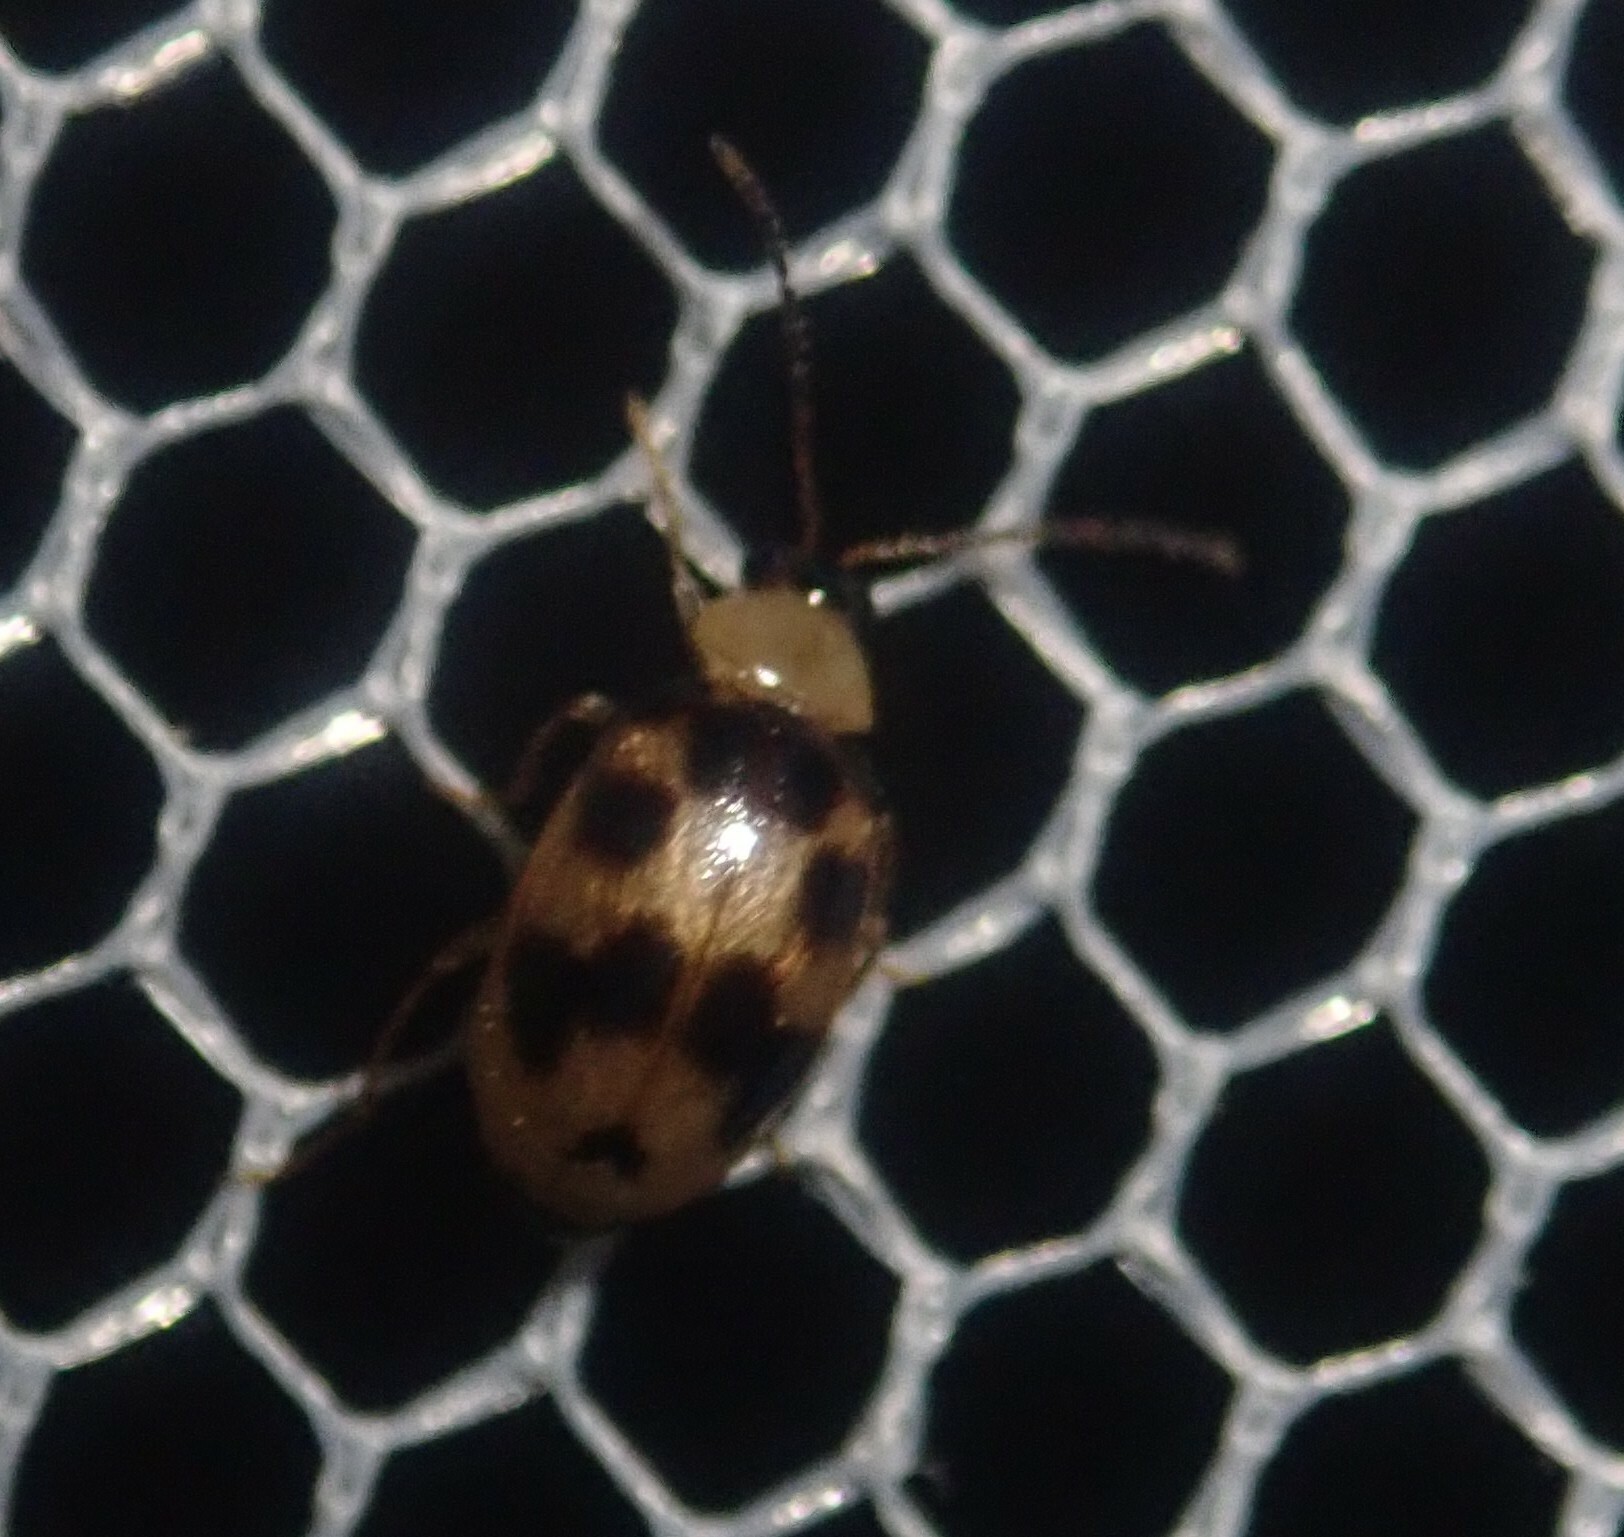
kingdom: Animalia
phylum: Arthropoda
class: Insecta
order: Coleoptera
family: Chrysomelidae
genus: Afromaculepta
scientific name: Afromaculepta decemmaculata
